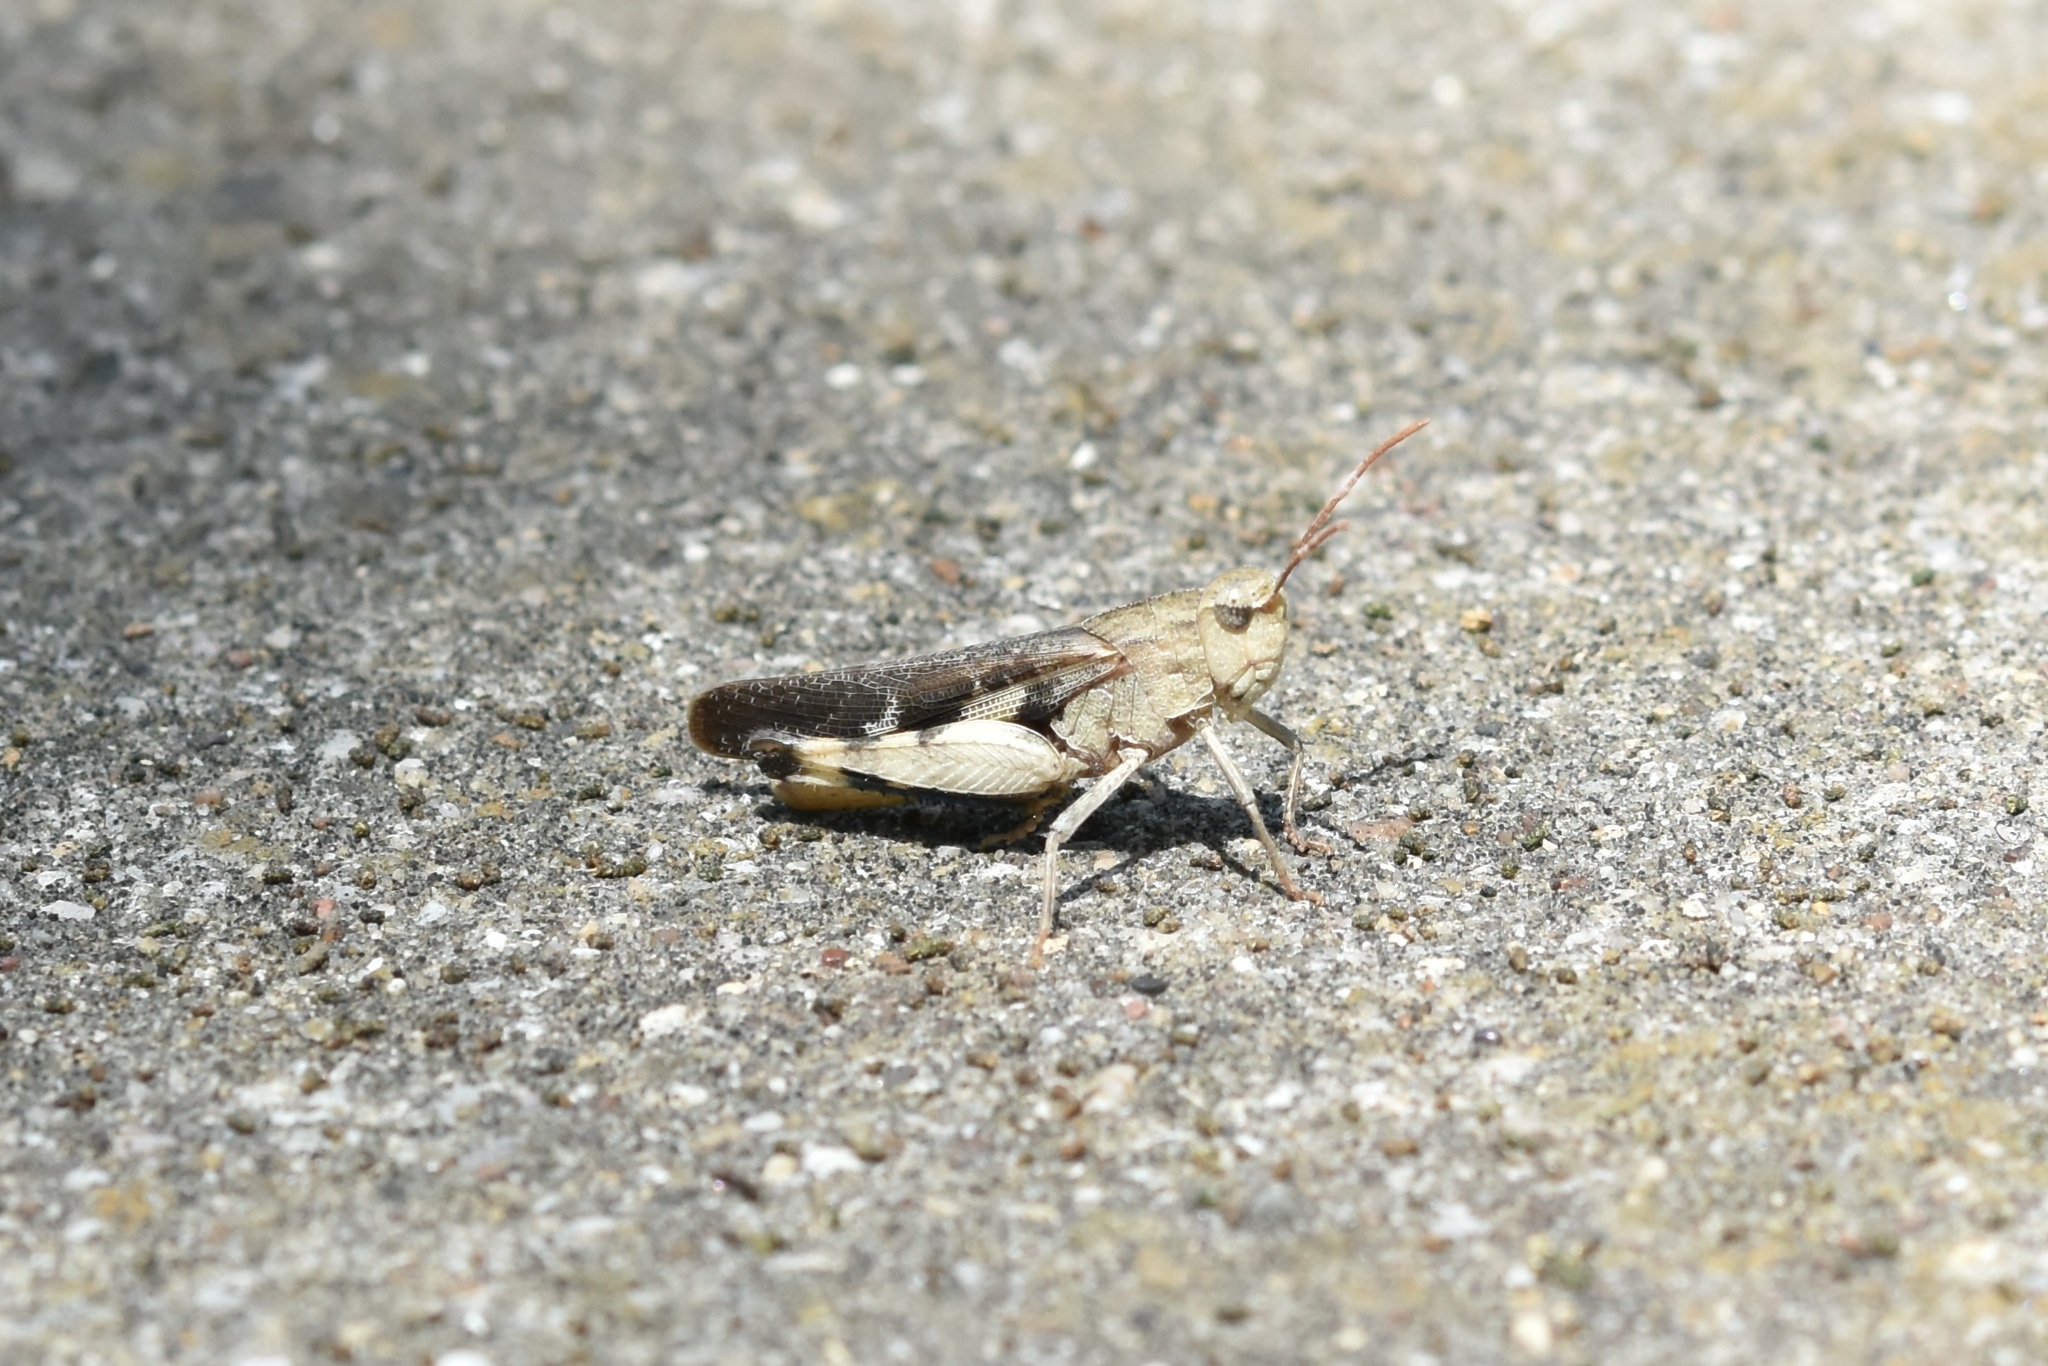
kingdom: Animalia
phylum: Arthropoda
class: Insecta
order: Orthoptera
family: Acrididae
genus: Chortophaga
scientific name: Chortophaga viridifasciata
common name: Green-striped grasshopper
